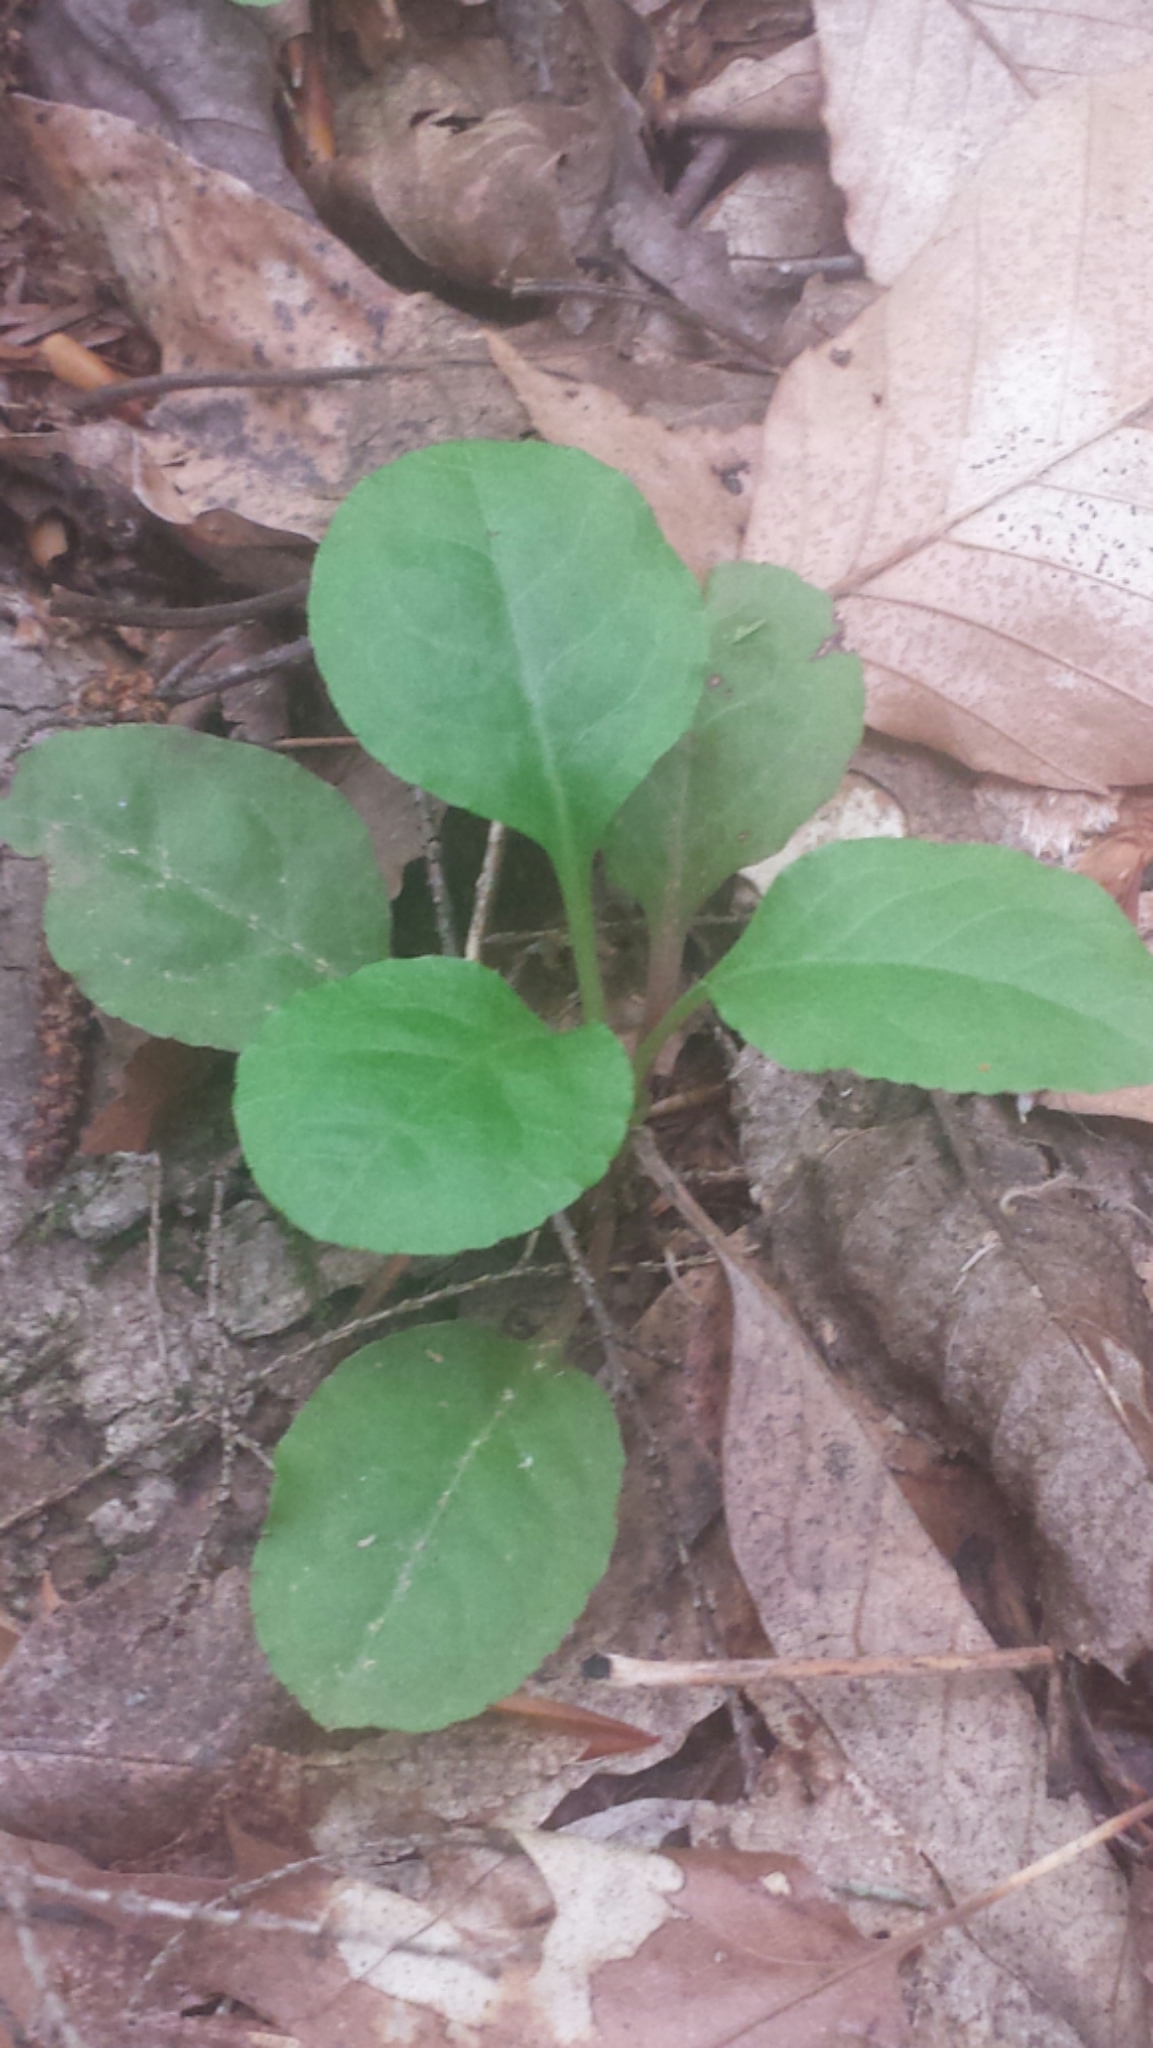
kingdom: Plantae
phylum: Tracheophyta
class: Magnoliopsida
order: Ericales
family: Ericaceae
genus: Pyrola
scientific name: Pyrola elliptica
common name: Shinleaf
